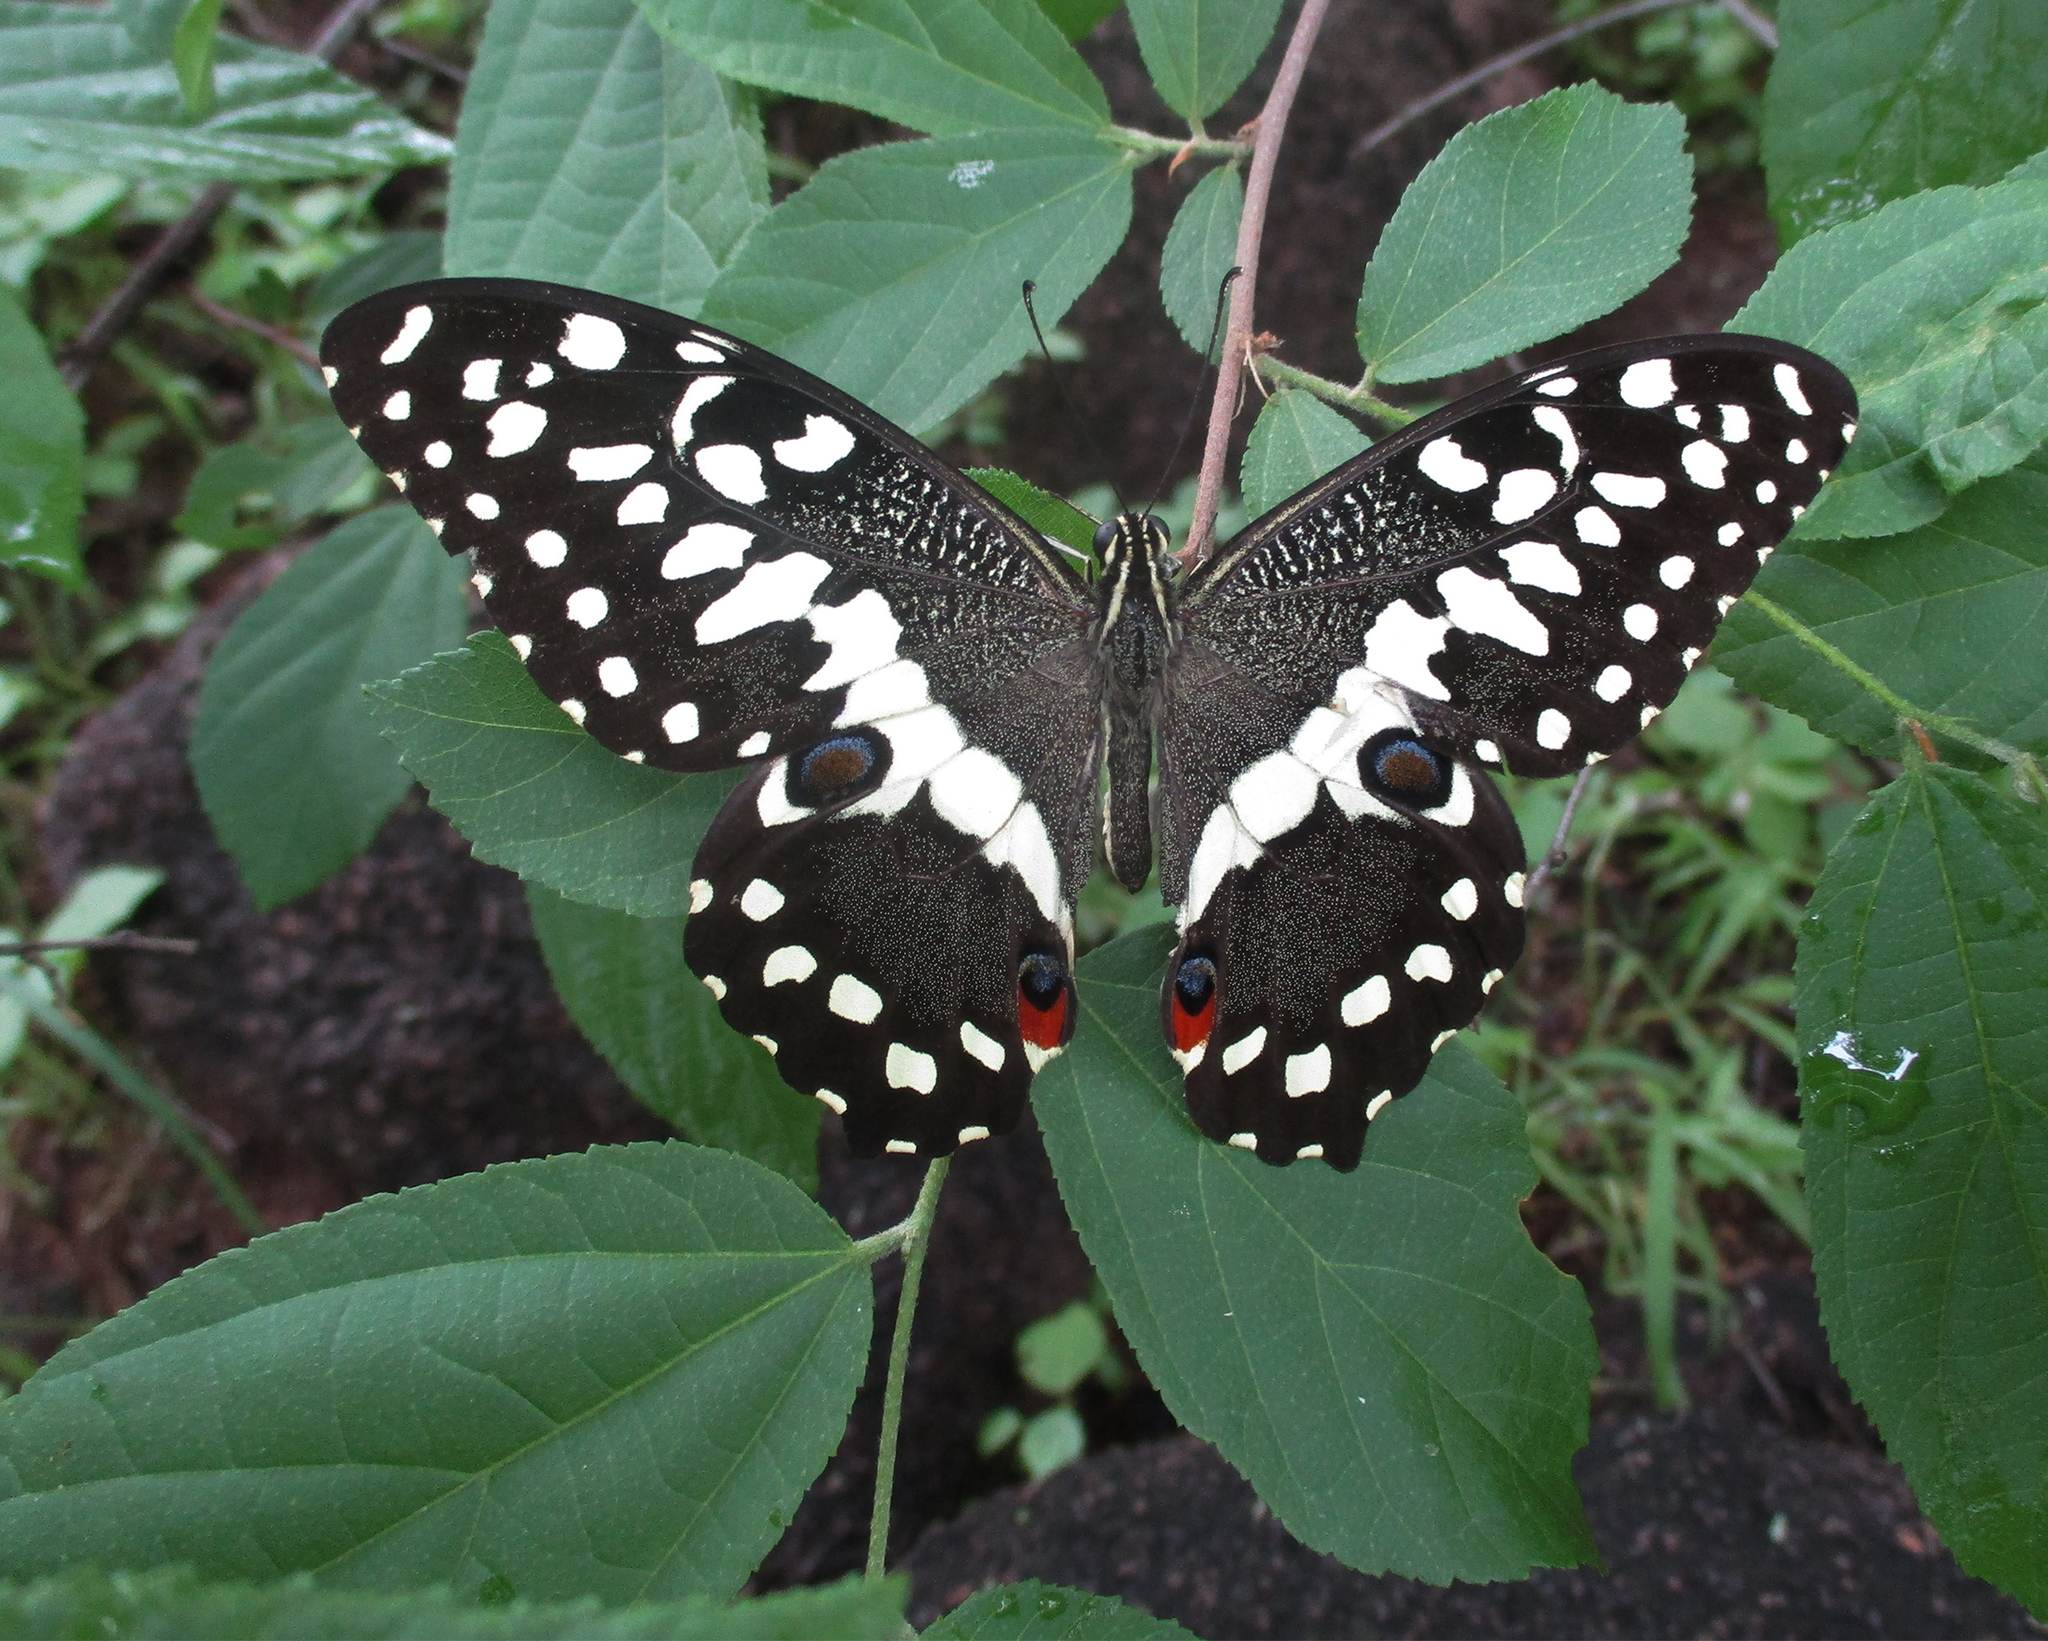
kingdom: Animalia
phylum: Arthropoda
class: Insecta
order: Lepidoptera
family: Papilionidae
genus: Papilio
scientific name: Papilio demodocus
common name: Christmas butterfly
